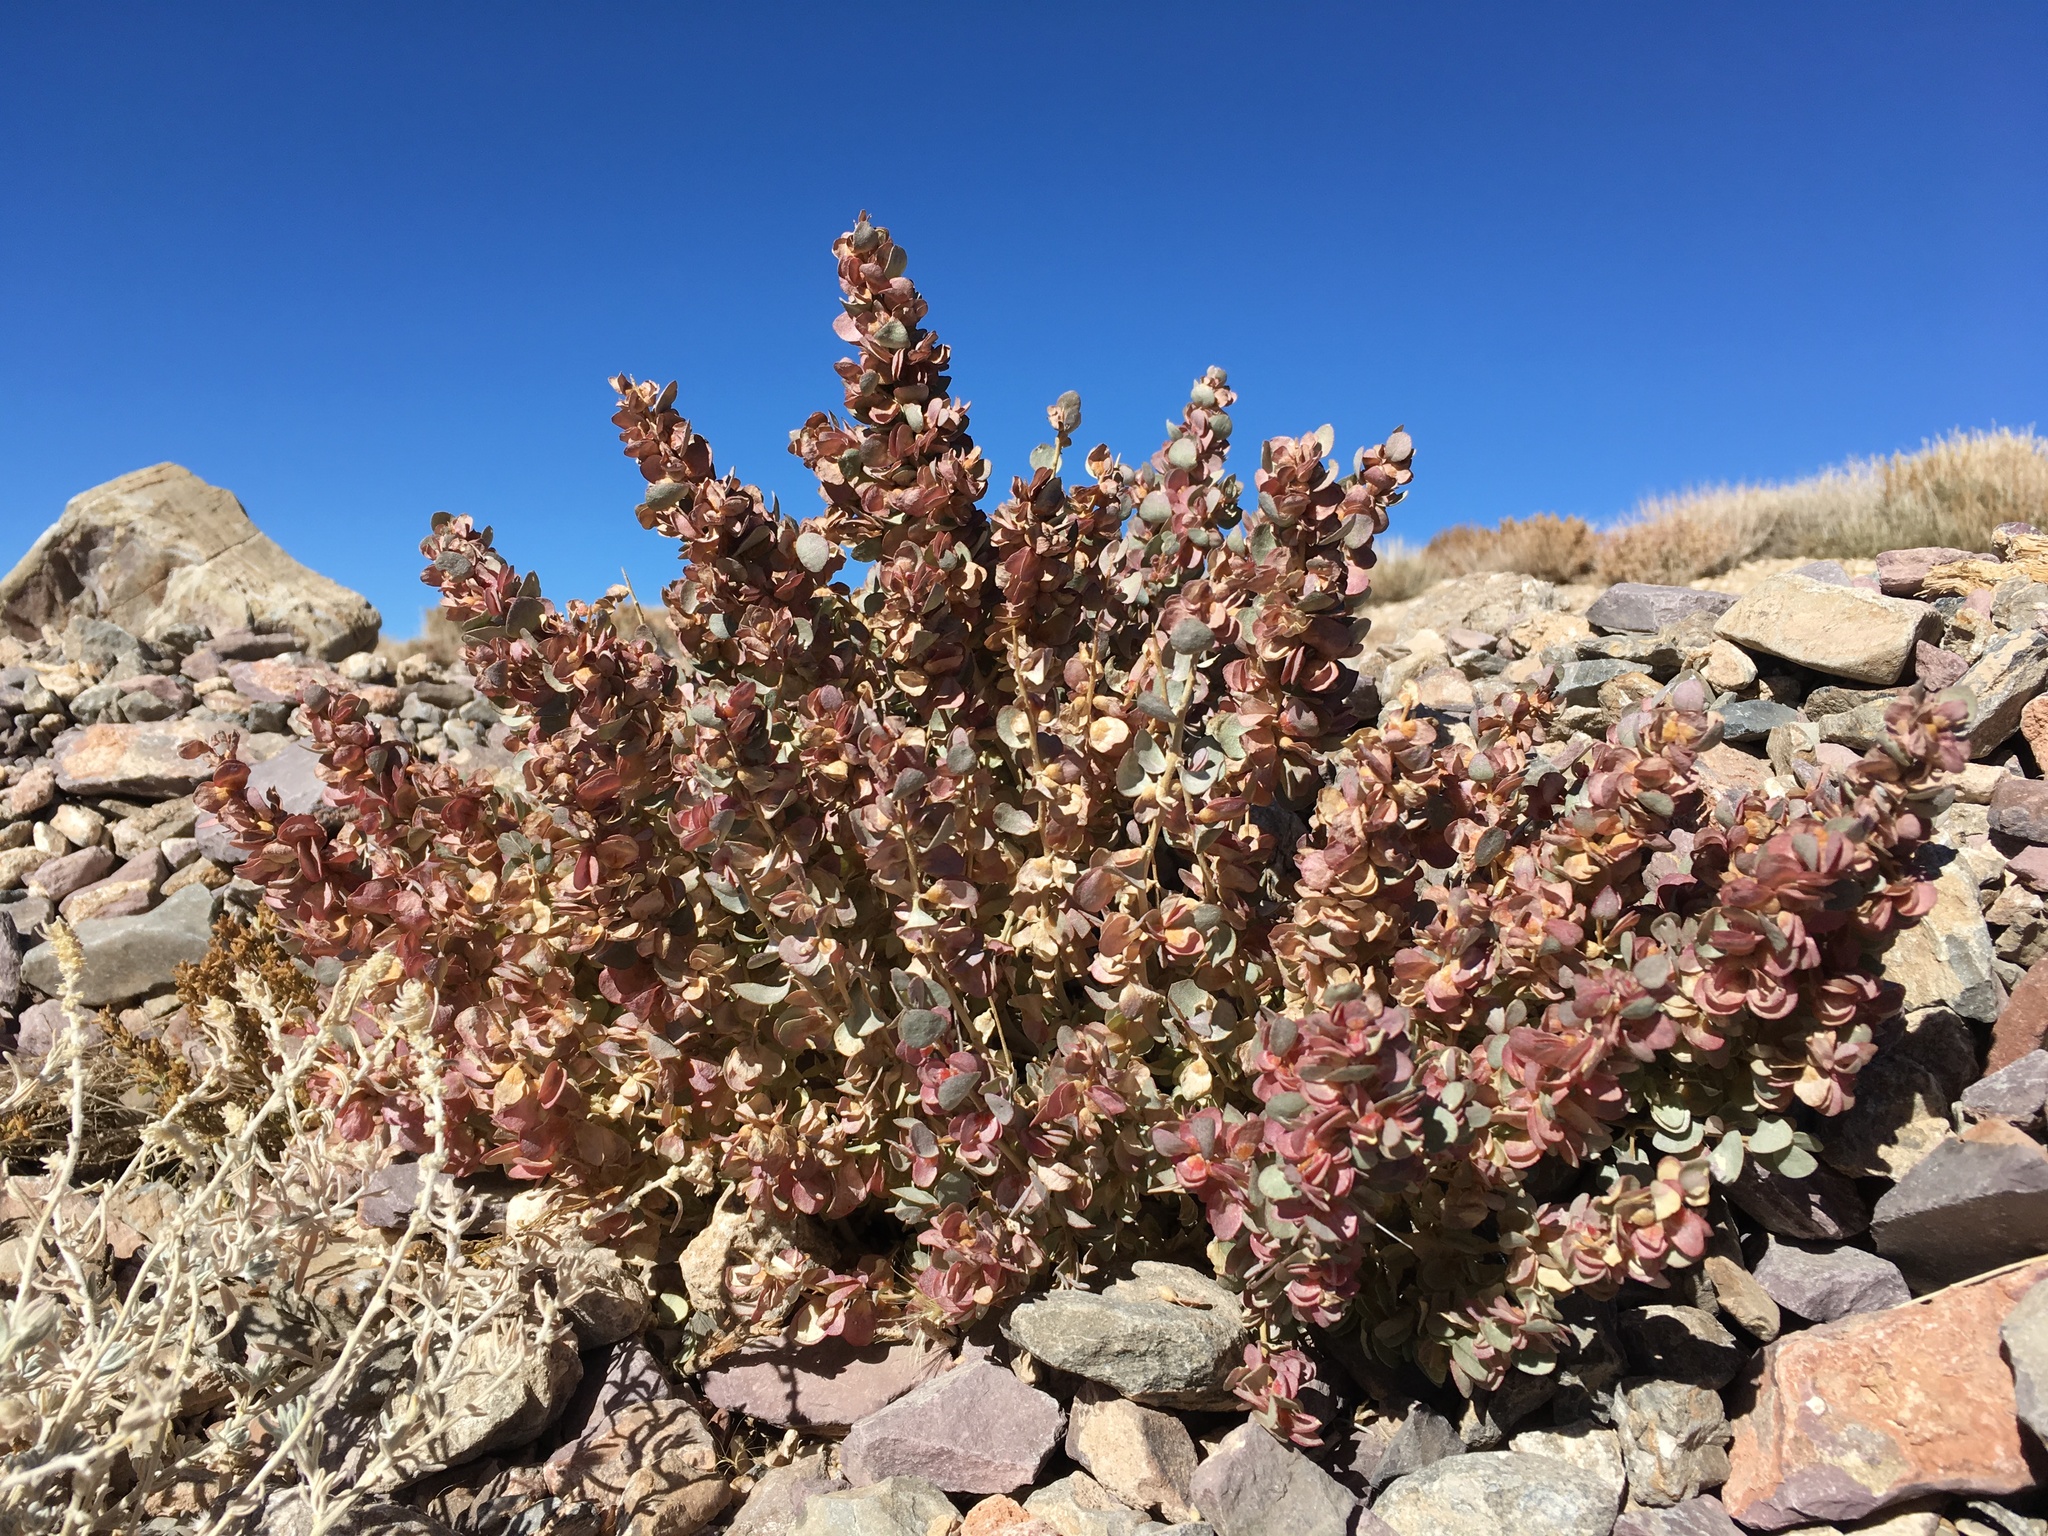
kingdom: Plantae
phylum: Tracheophyta
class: Magnoliopsida
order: Caryophyllales
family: Amaranthaceae
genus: Atriplex
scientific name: Atriplex confertifolia
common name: Shadscale
